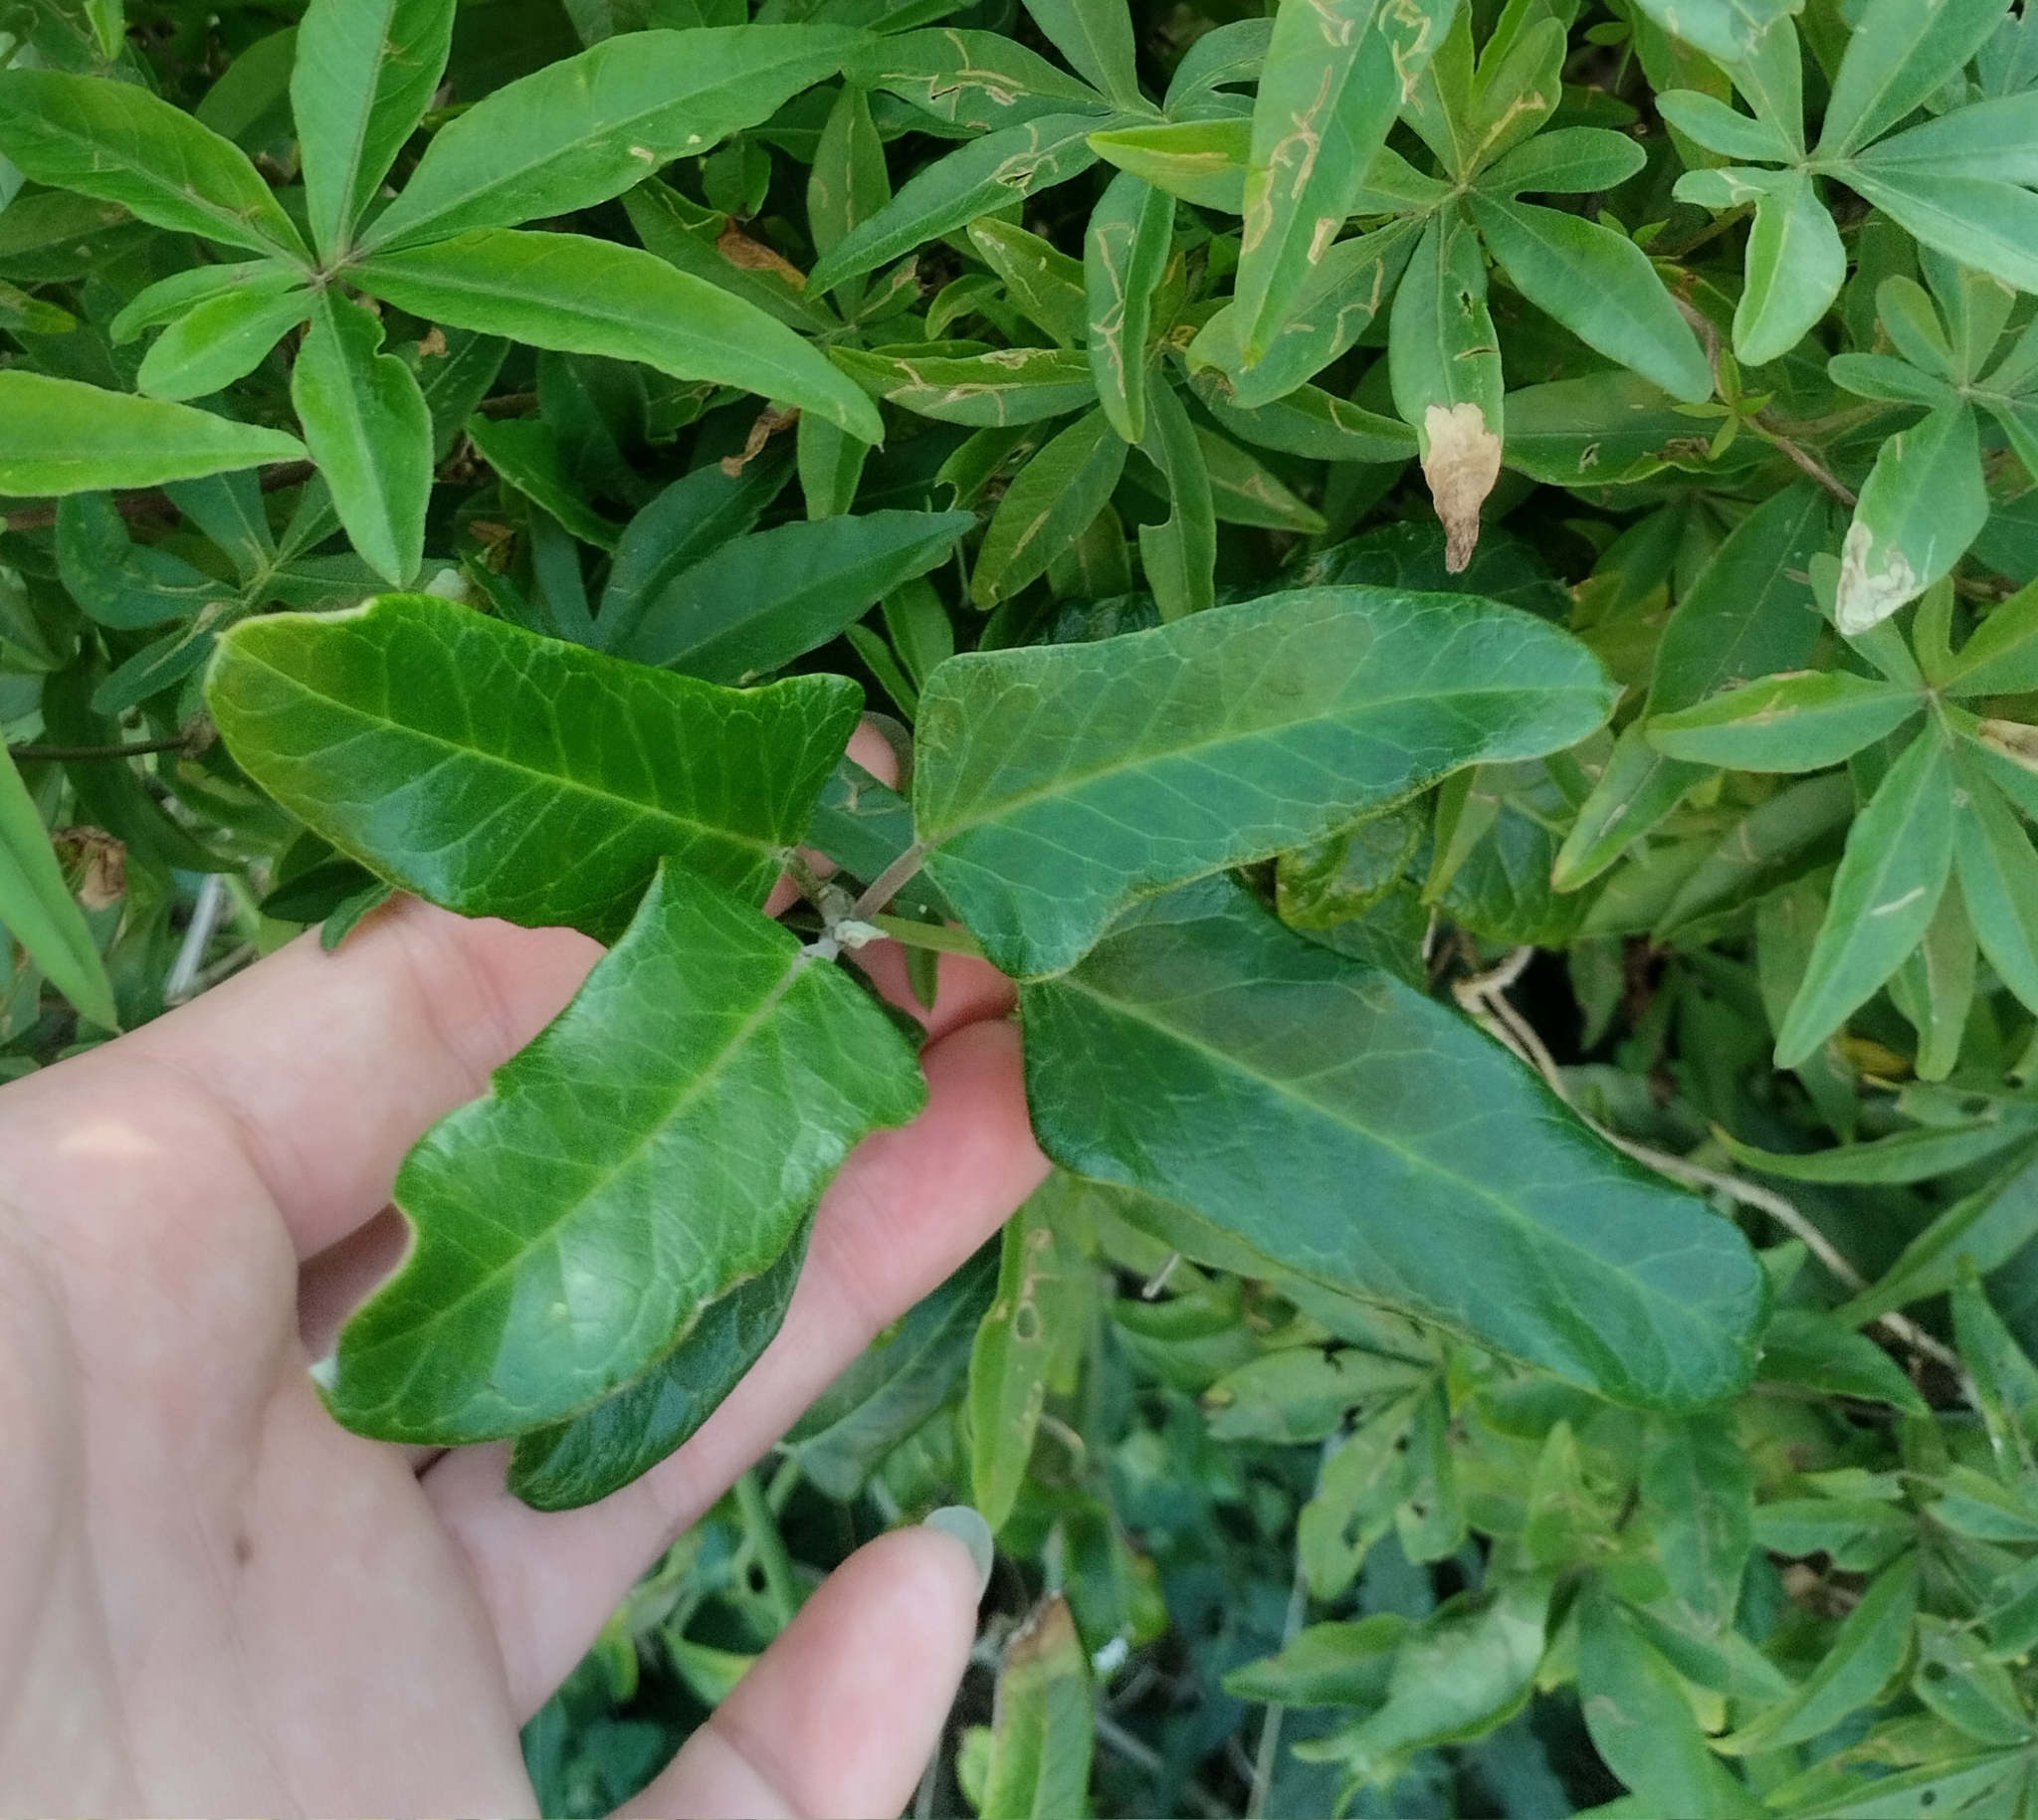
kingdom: Plantae
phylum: Tracheophyta
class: Magnoliopsida
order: Gentianales
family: Apocynaceae
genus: Araujia
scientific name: Araujia sericifera
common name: White bladderflower
